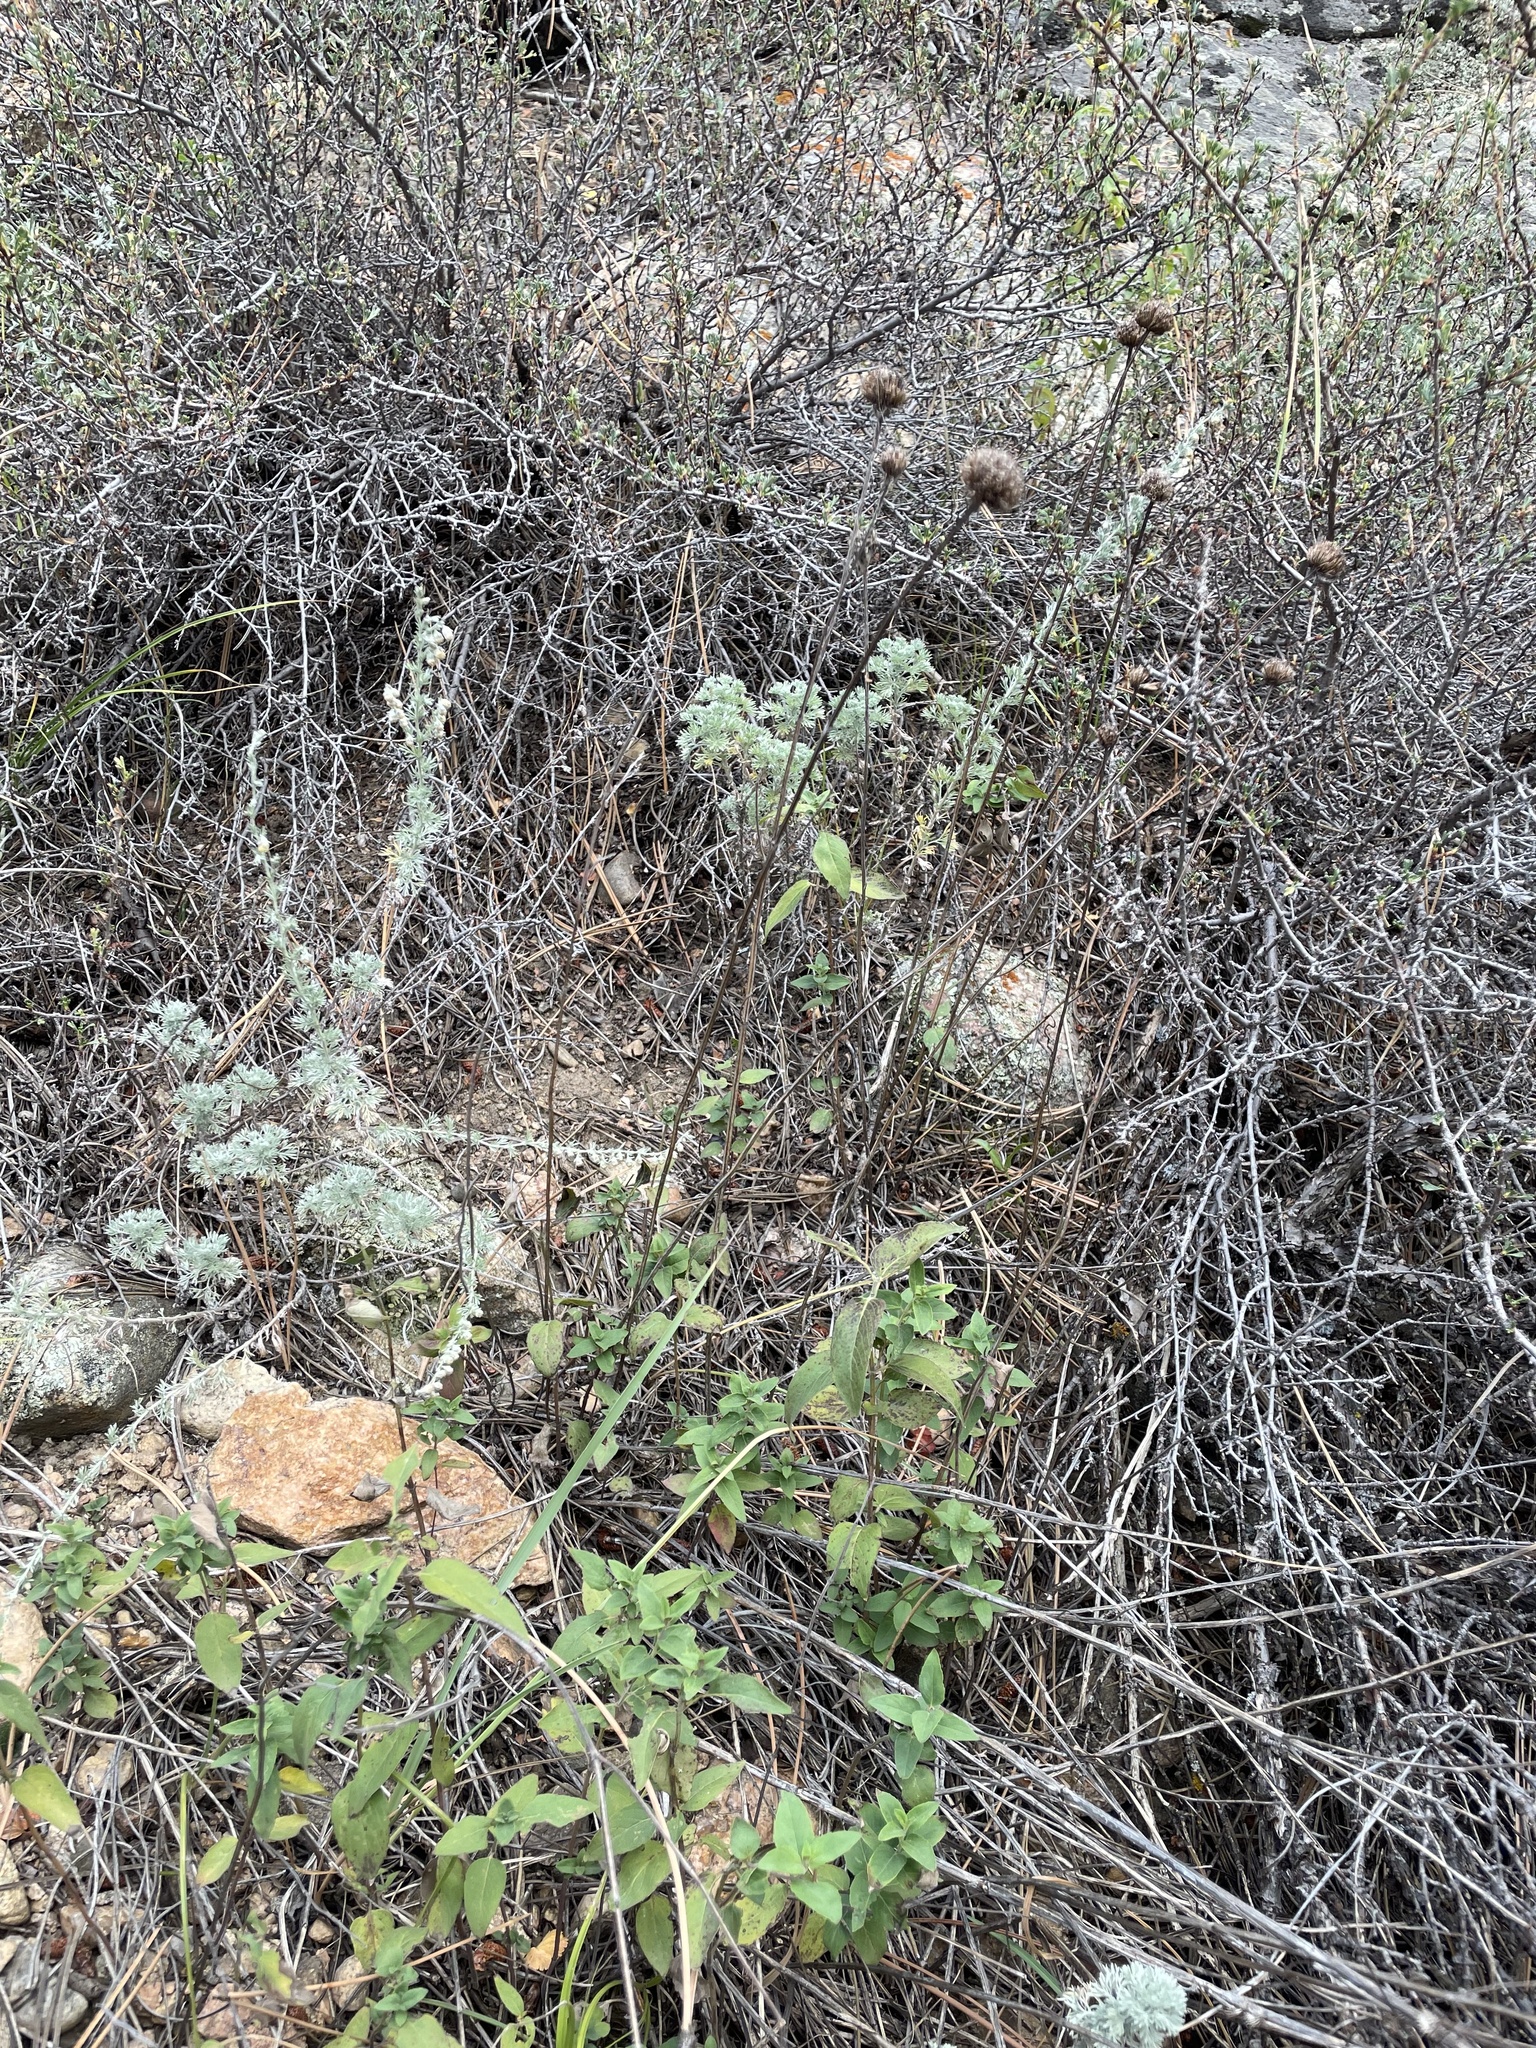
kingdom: Plantae
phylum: Tracheophyta
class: Magnoliopsida
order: Lamiales
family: Lamiaceae
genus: Monarda
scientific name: Monarda fistulosa
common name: Purple beebalm
